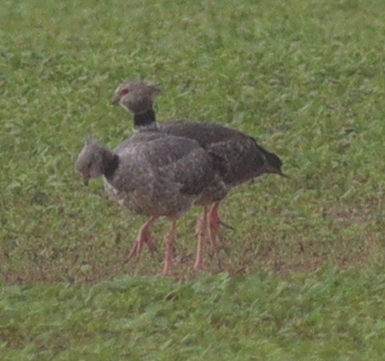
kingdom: Animalia
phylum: Chordata
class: Aves
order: Anseriformes
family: Anhimidae
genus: Chauna
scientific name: Chauna torquata
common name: Southern screamer
